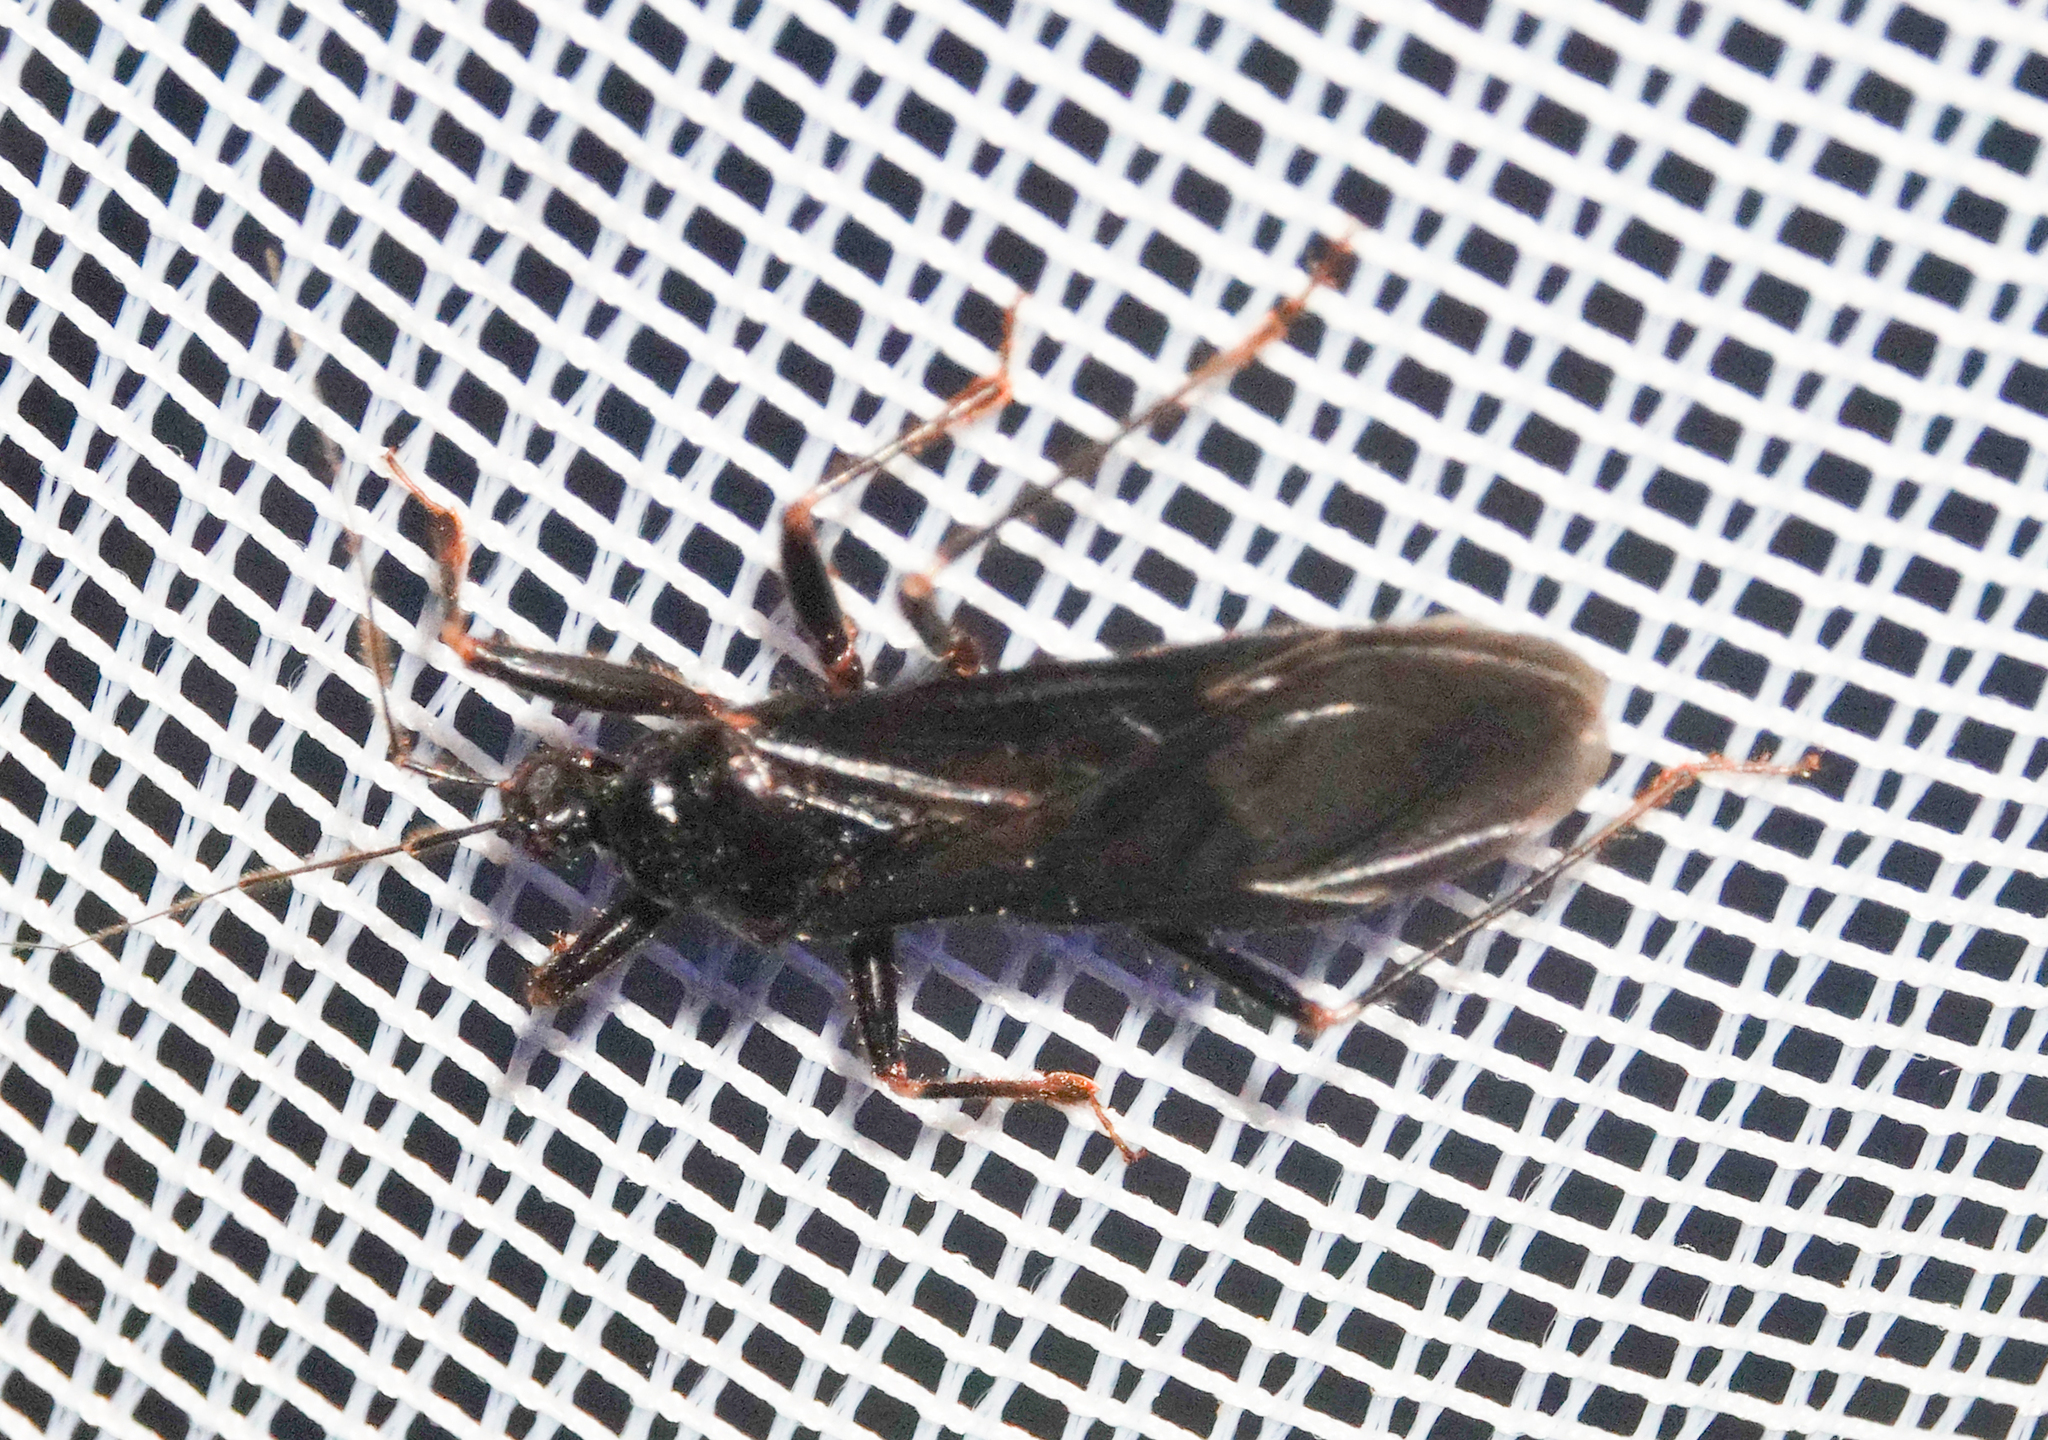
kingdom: Animalia
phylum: Arthropoda
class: Insecta
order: Hemiptera
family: Reduviidae
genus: Reduvius
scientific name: Reduvius personatus
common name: Masked hunter
